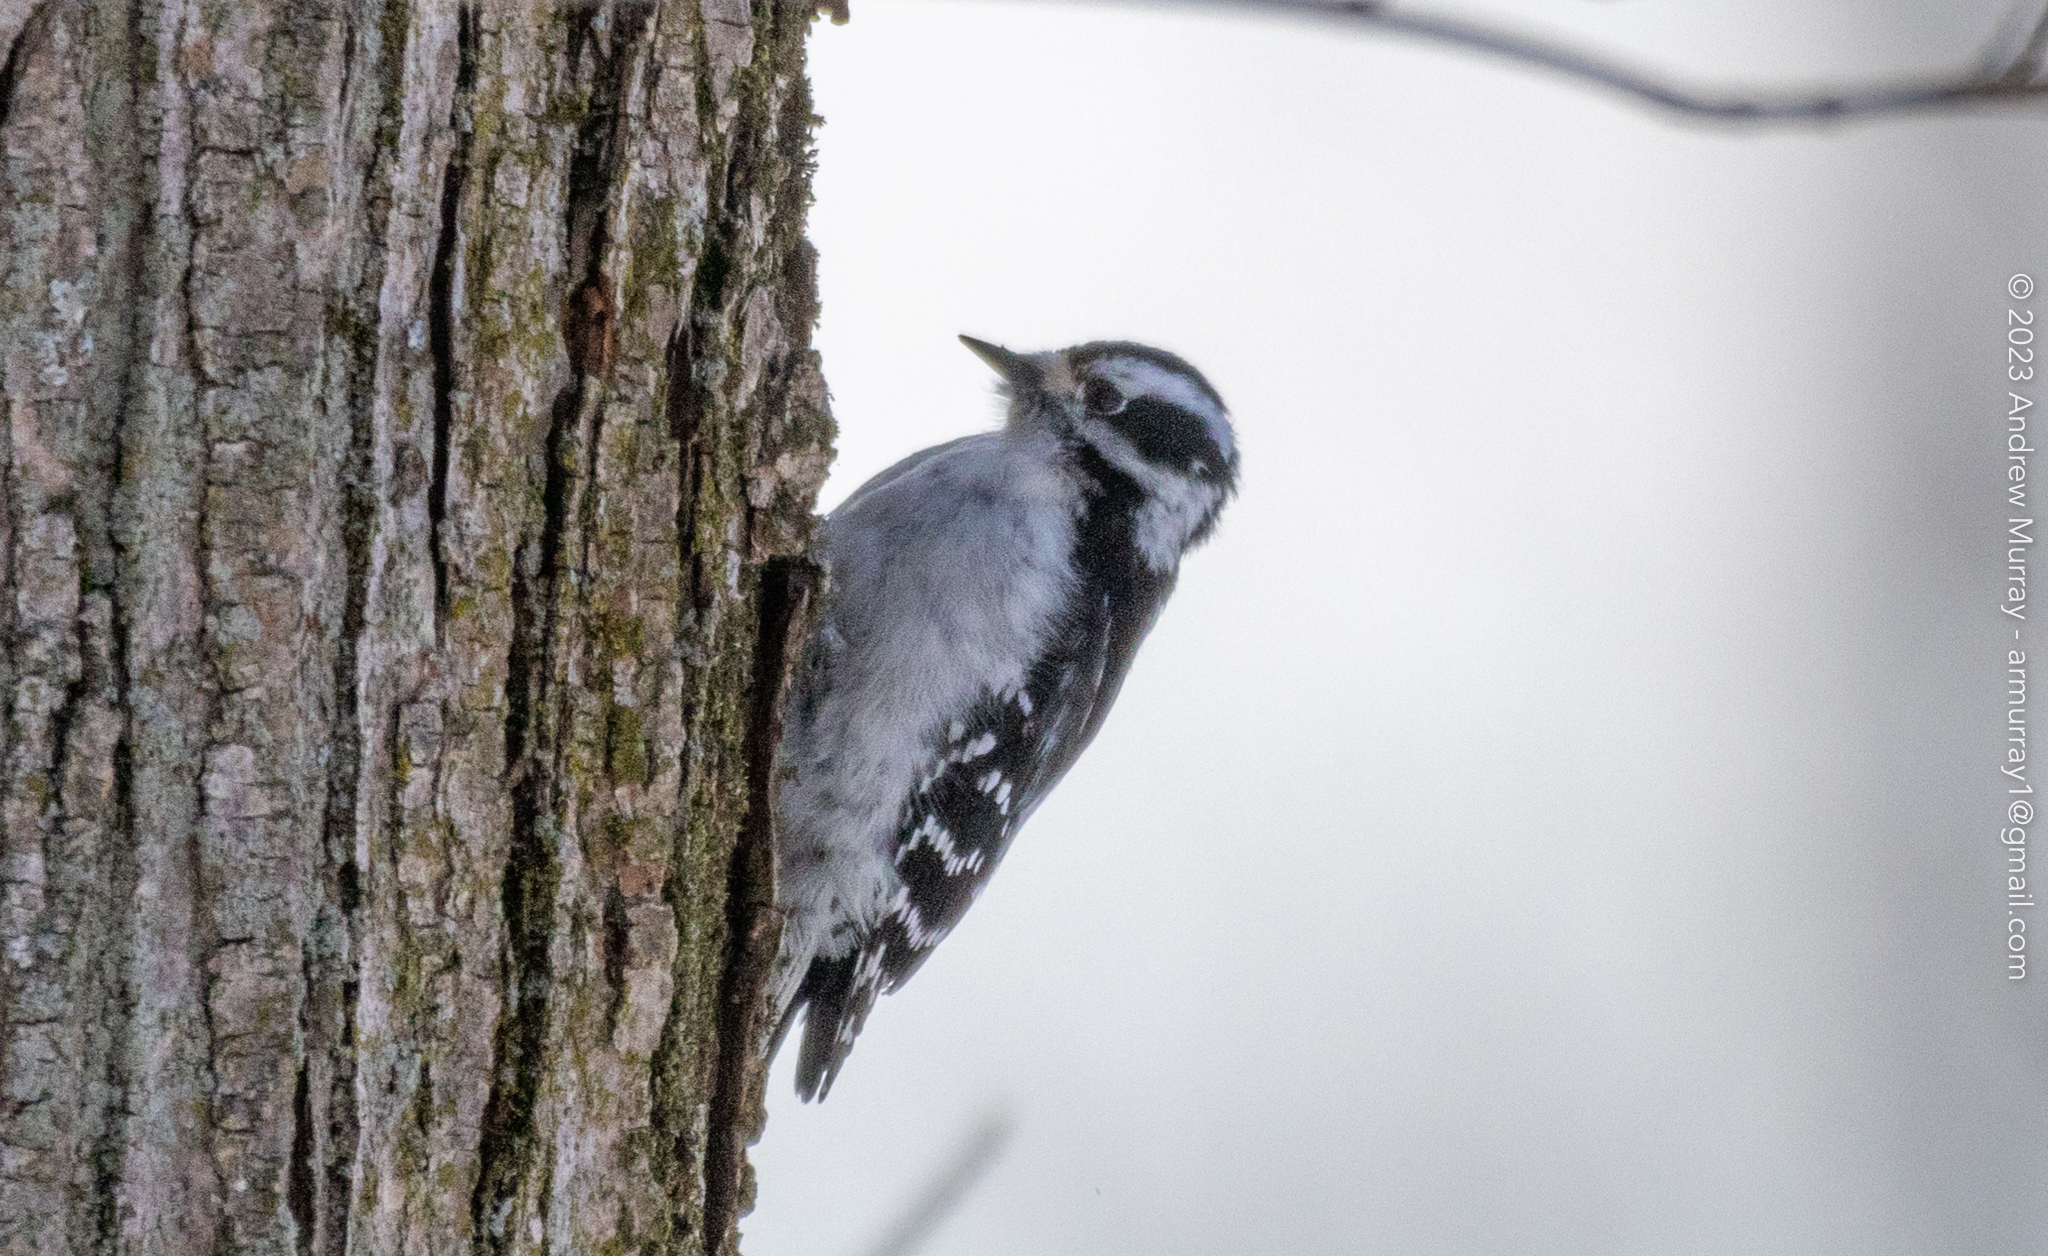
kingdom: Animalia
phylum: Chordata
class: Aves
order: Piciformes
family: Picidae
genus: Dryobates
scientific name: Dryobates pubescens
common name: Downy woodpecker
